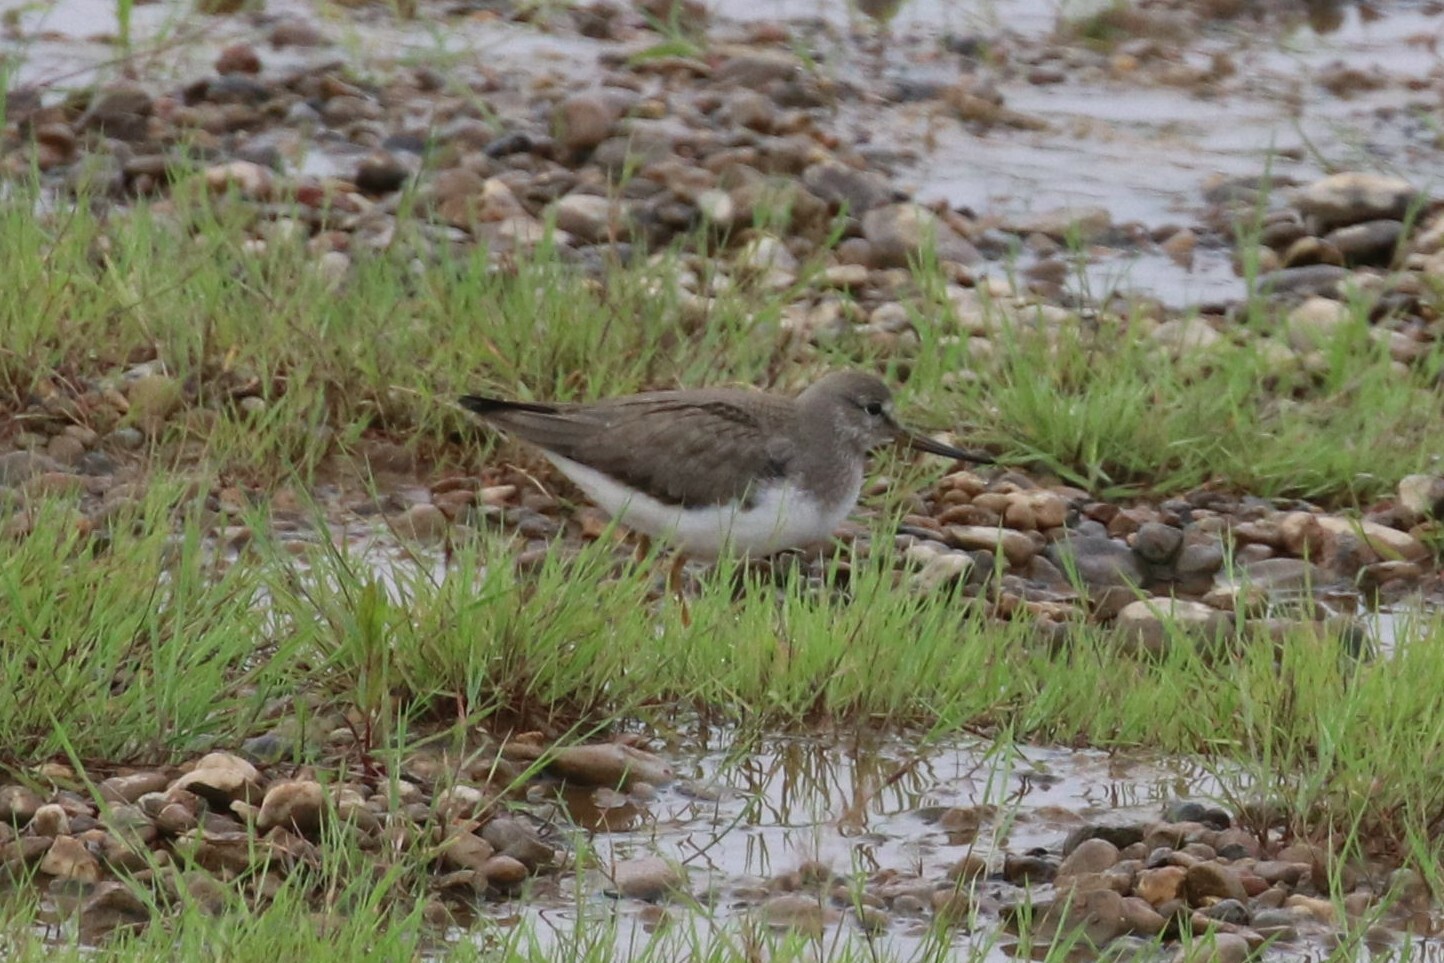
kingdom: Animalia
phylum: Chordata
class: Aves
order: Charadriiformes
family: Scolopacidae
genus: Xenus
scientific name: Xenus cinereus
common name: Terek sandpiper
